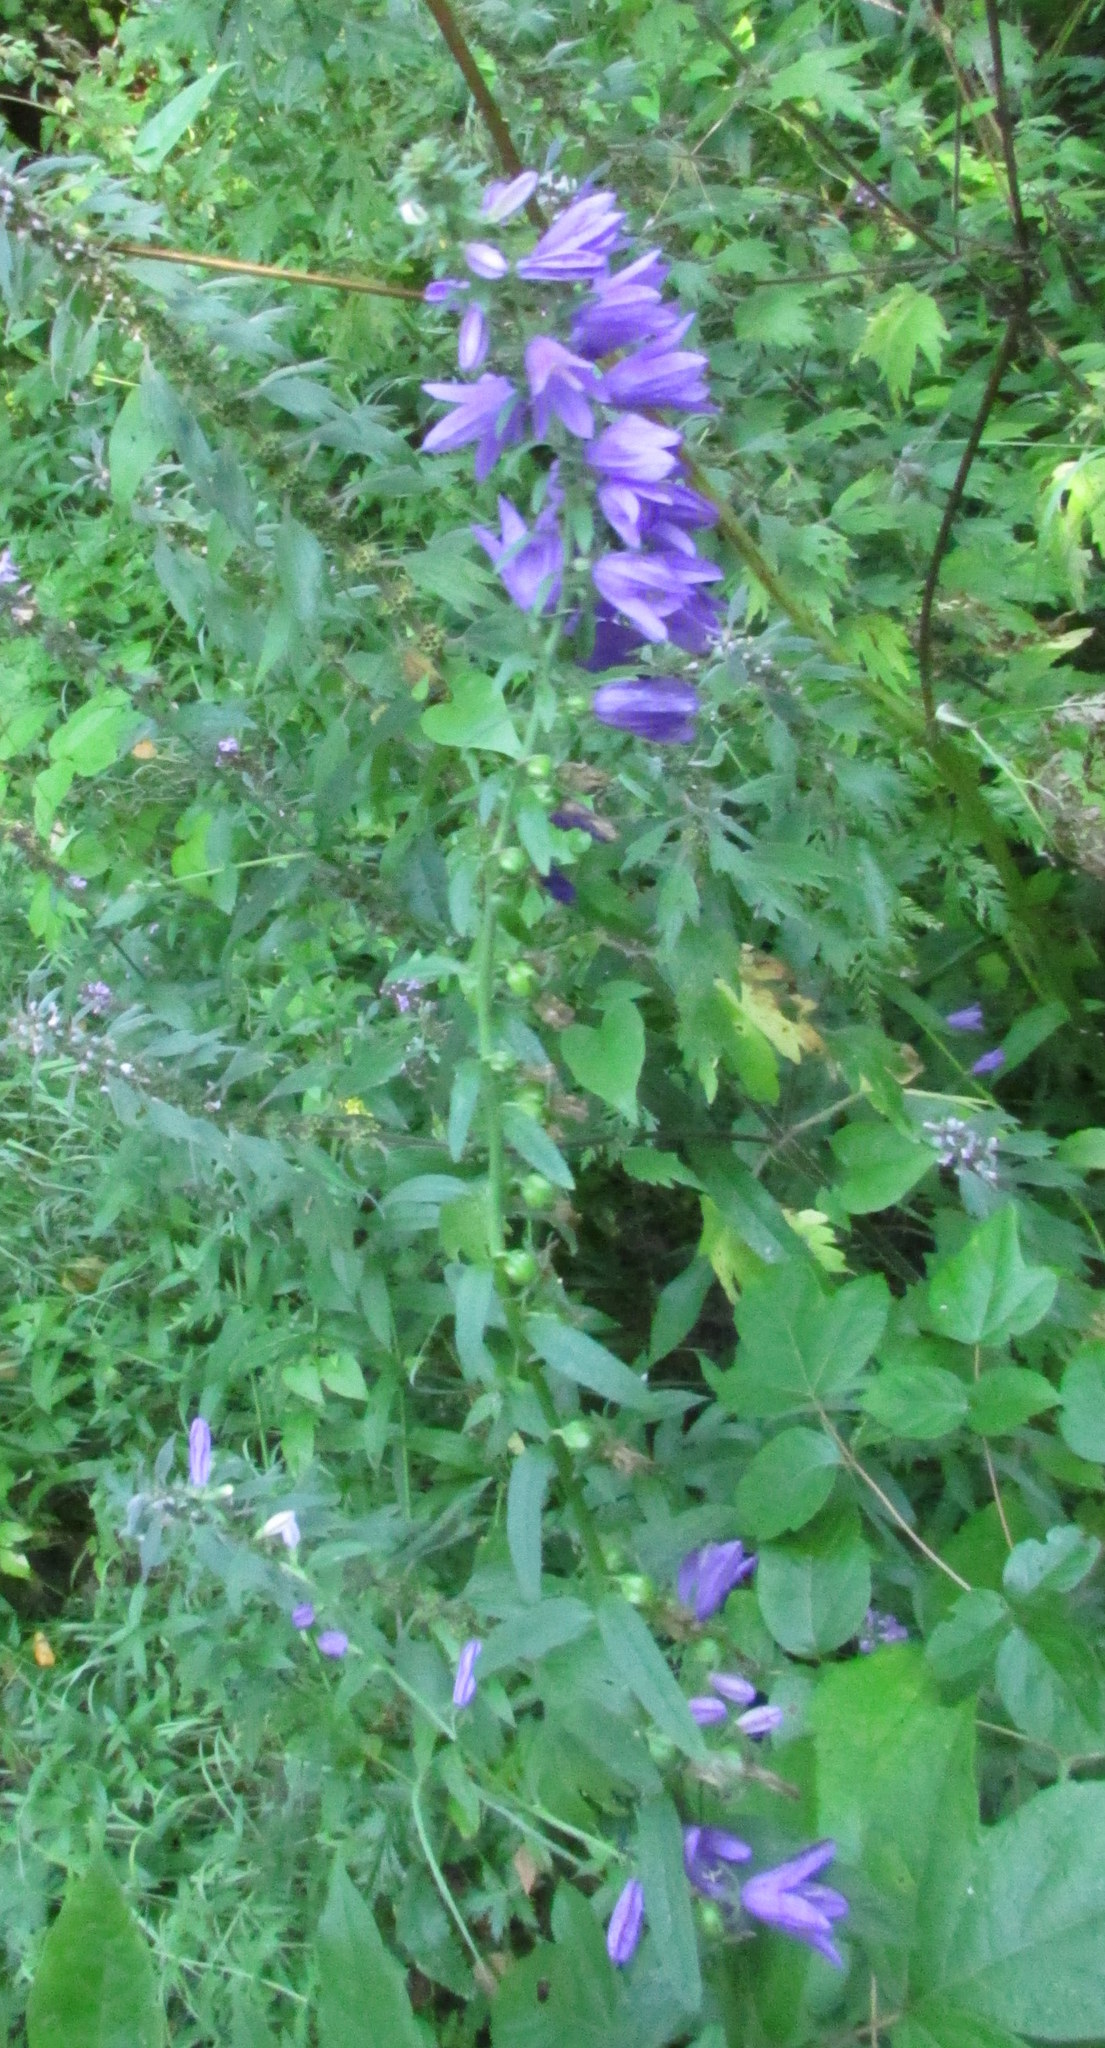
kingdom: Plantae
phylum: Tracheophyta
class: Magnoliopsida
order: Asterales
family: Campanulaceae
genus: Campanula
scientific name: Campanula rapunculoides
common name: Creeping bellflower
